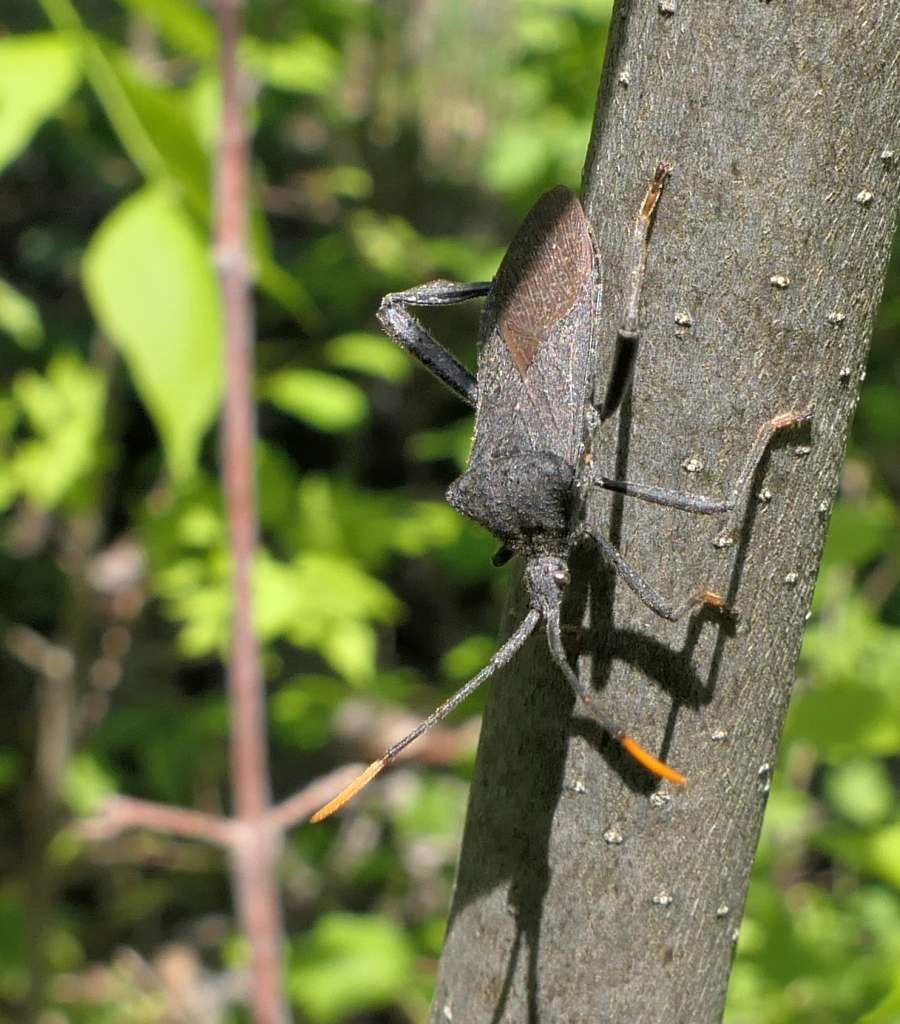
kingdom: Animalia
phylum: Arthropoda
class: Insecta
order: Hemiptera
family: Coreidae
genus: Acanthocephala
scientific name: Acanthocephala terminalis
